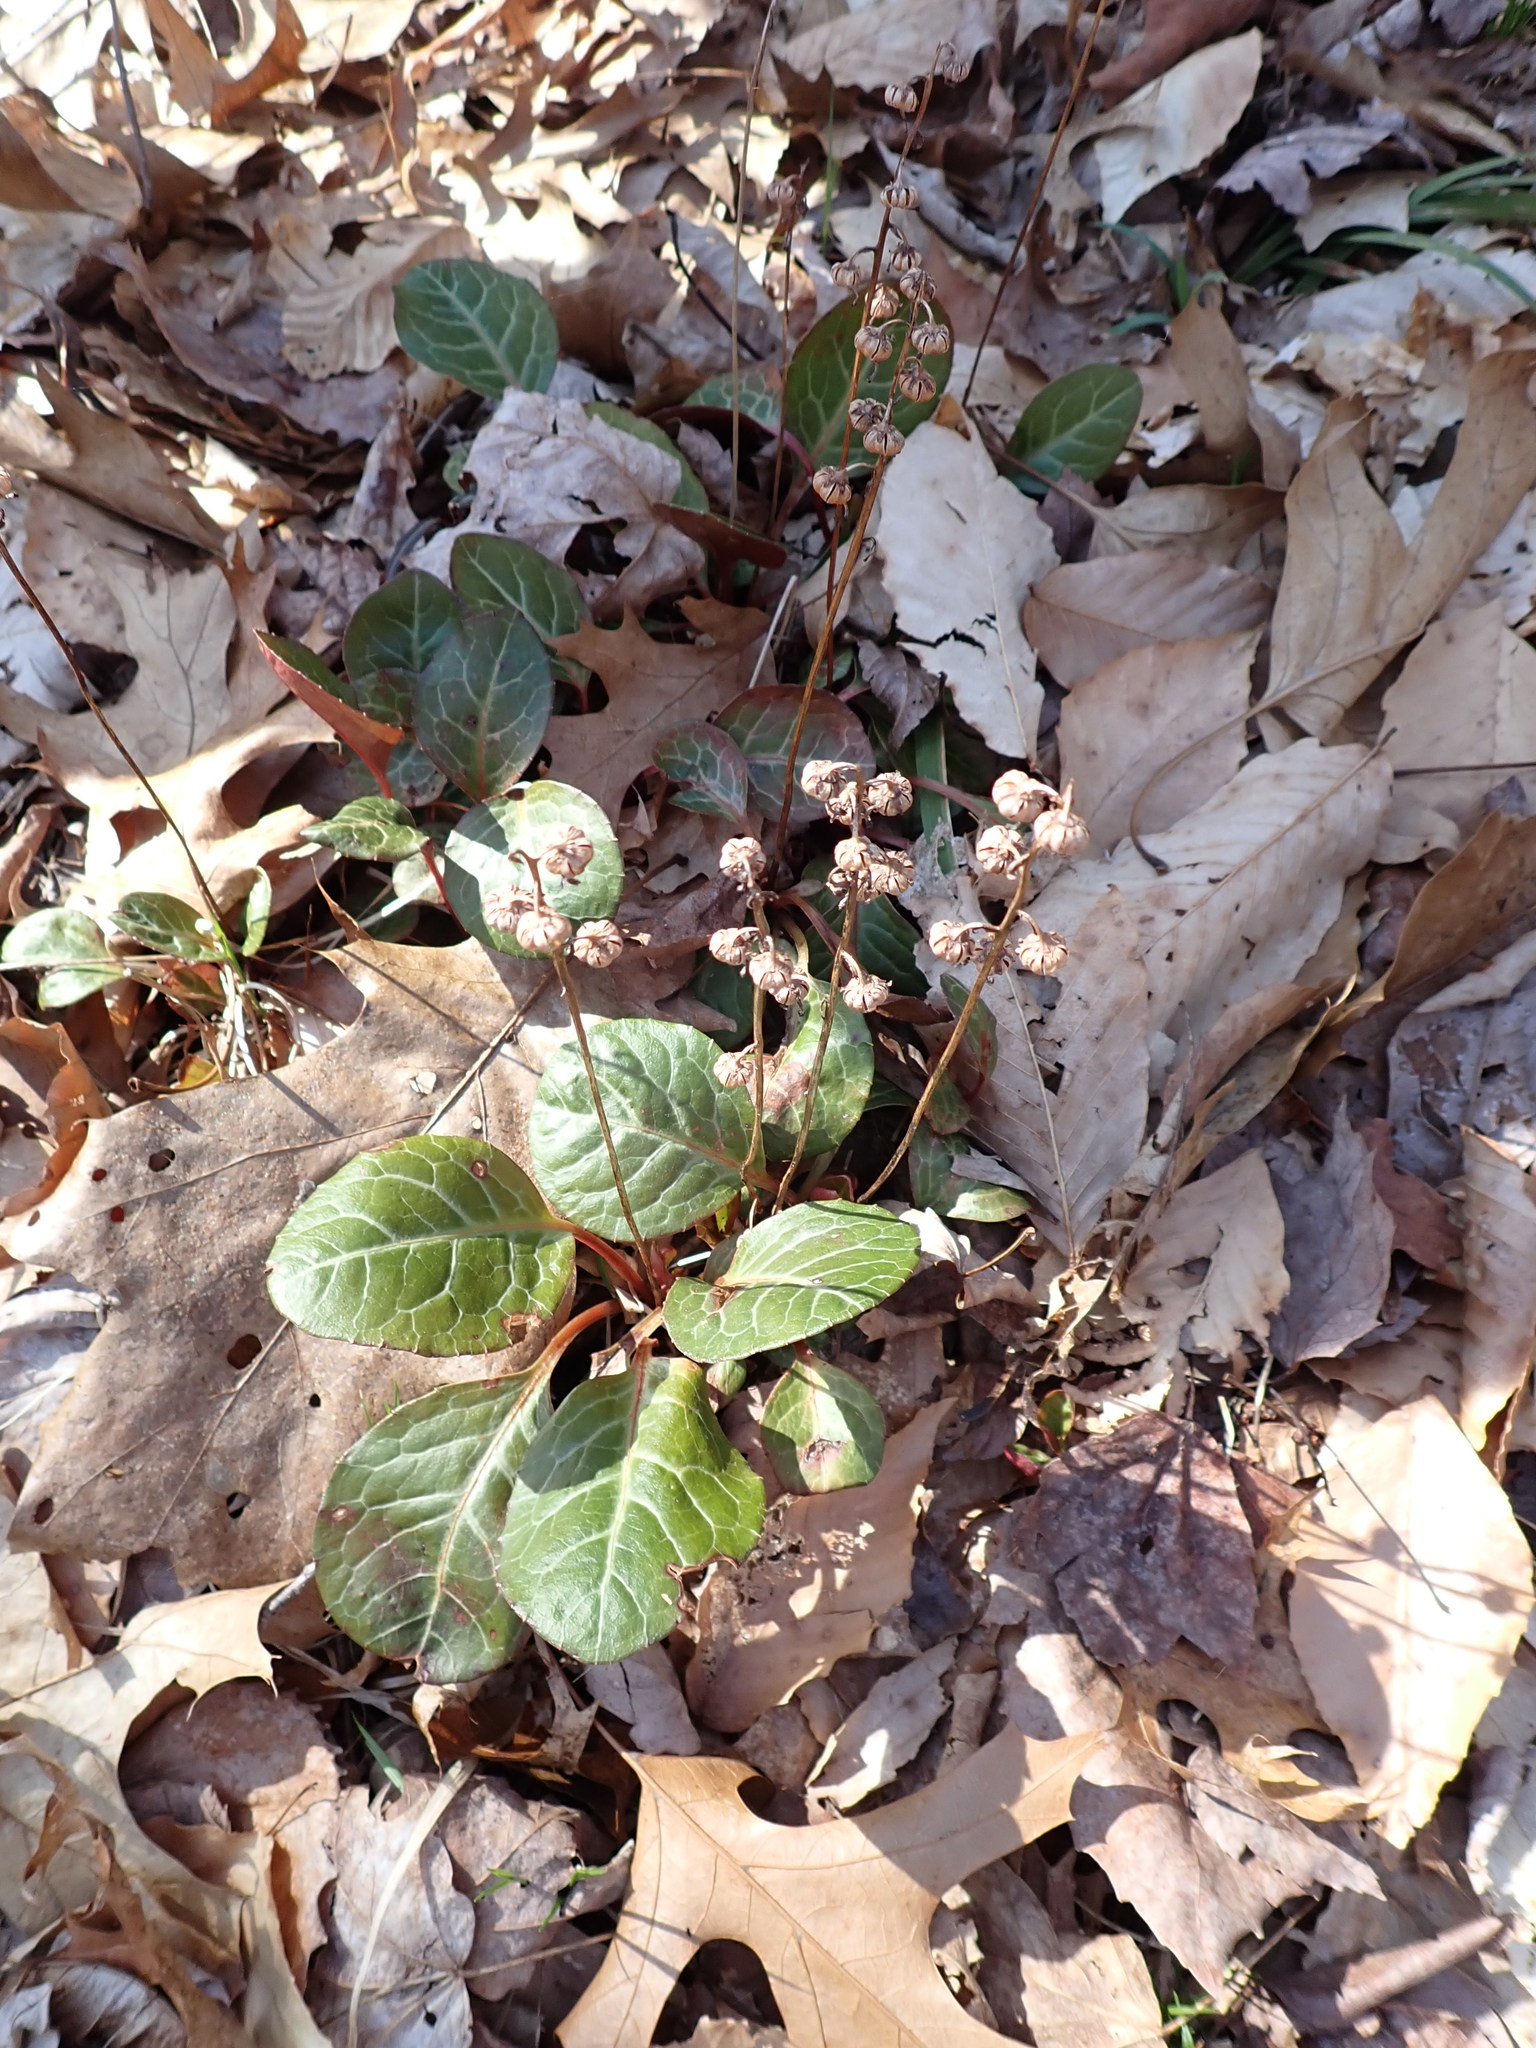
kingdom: Plantae
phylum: Tracheophyta
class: Magnoliopsida
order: Ericales
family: Ericaceae
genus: Pyrola
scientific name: Pyrola americana
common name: American wintergreen
